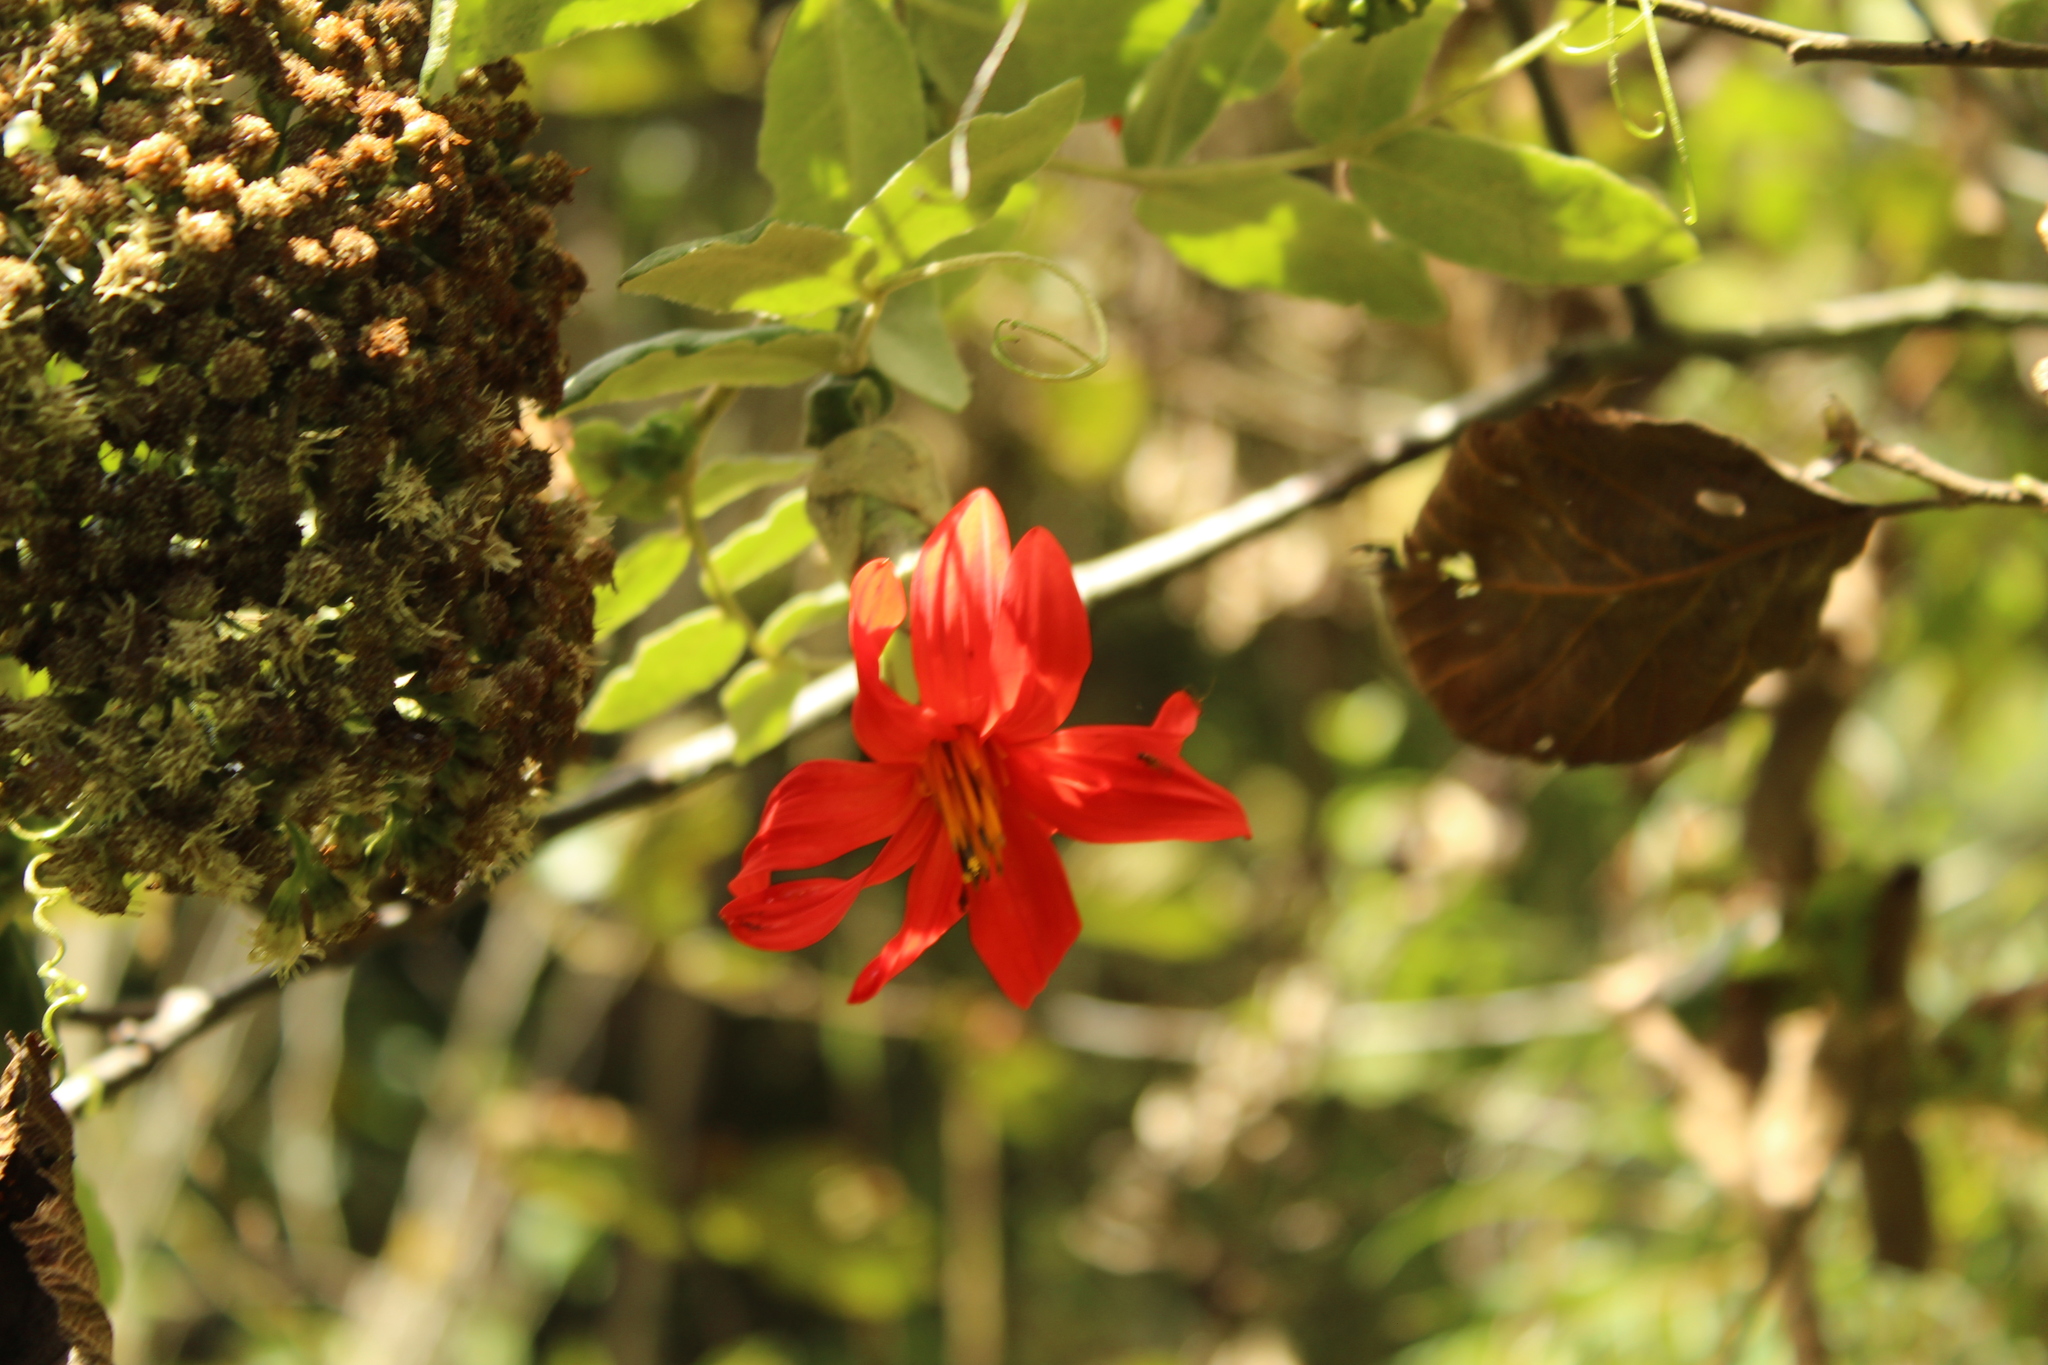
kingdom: Plantae
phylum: Tracheophyta
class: Magnoliopsida
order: Asterales
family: Asteraceae
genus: Mutisia
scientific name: Mutisia clematis
